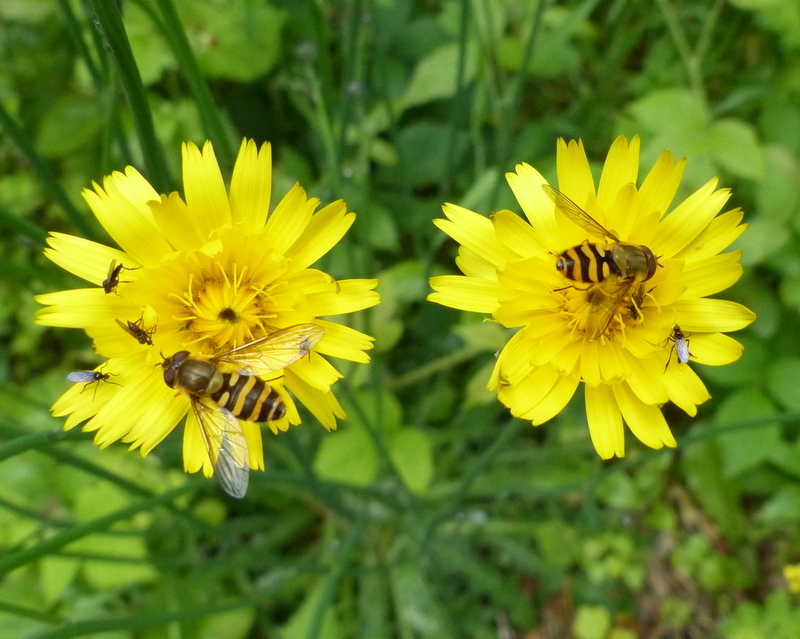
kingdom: Animalia
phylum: Arthropoda
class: Insecta
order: Diptera
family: Syrphidae
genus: Syrphus
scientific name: Syrphus
